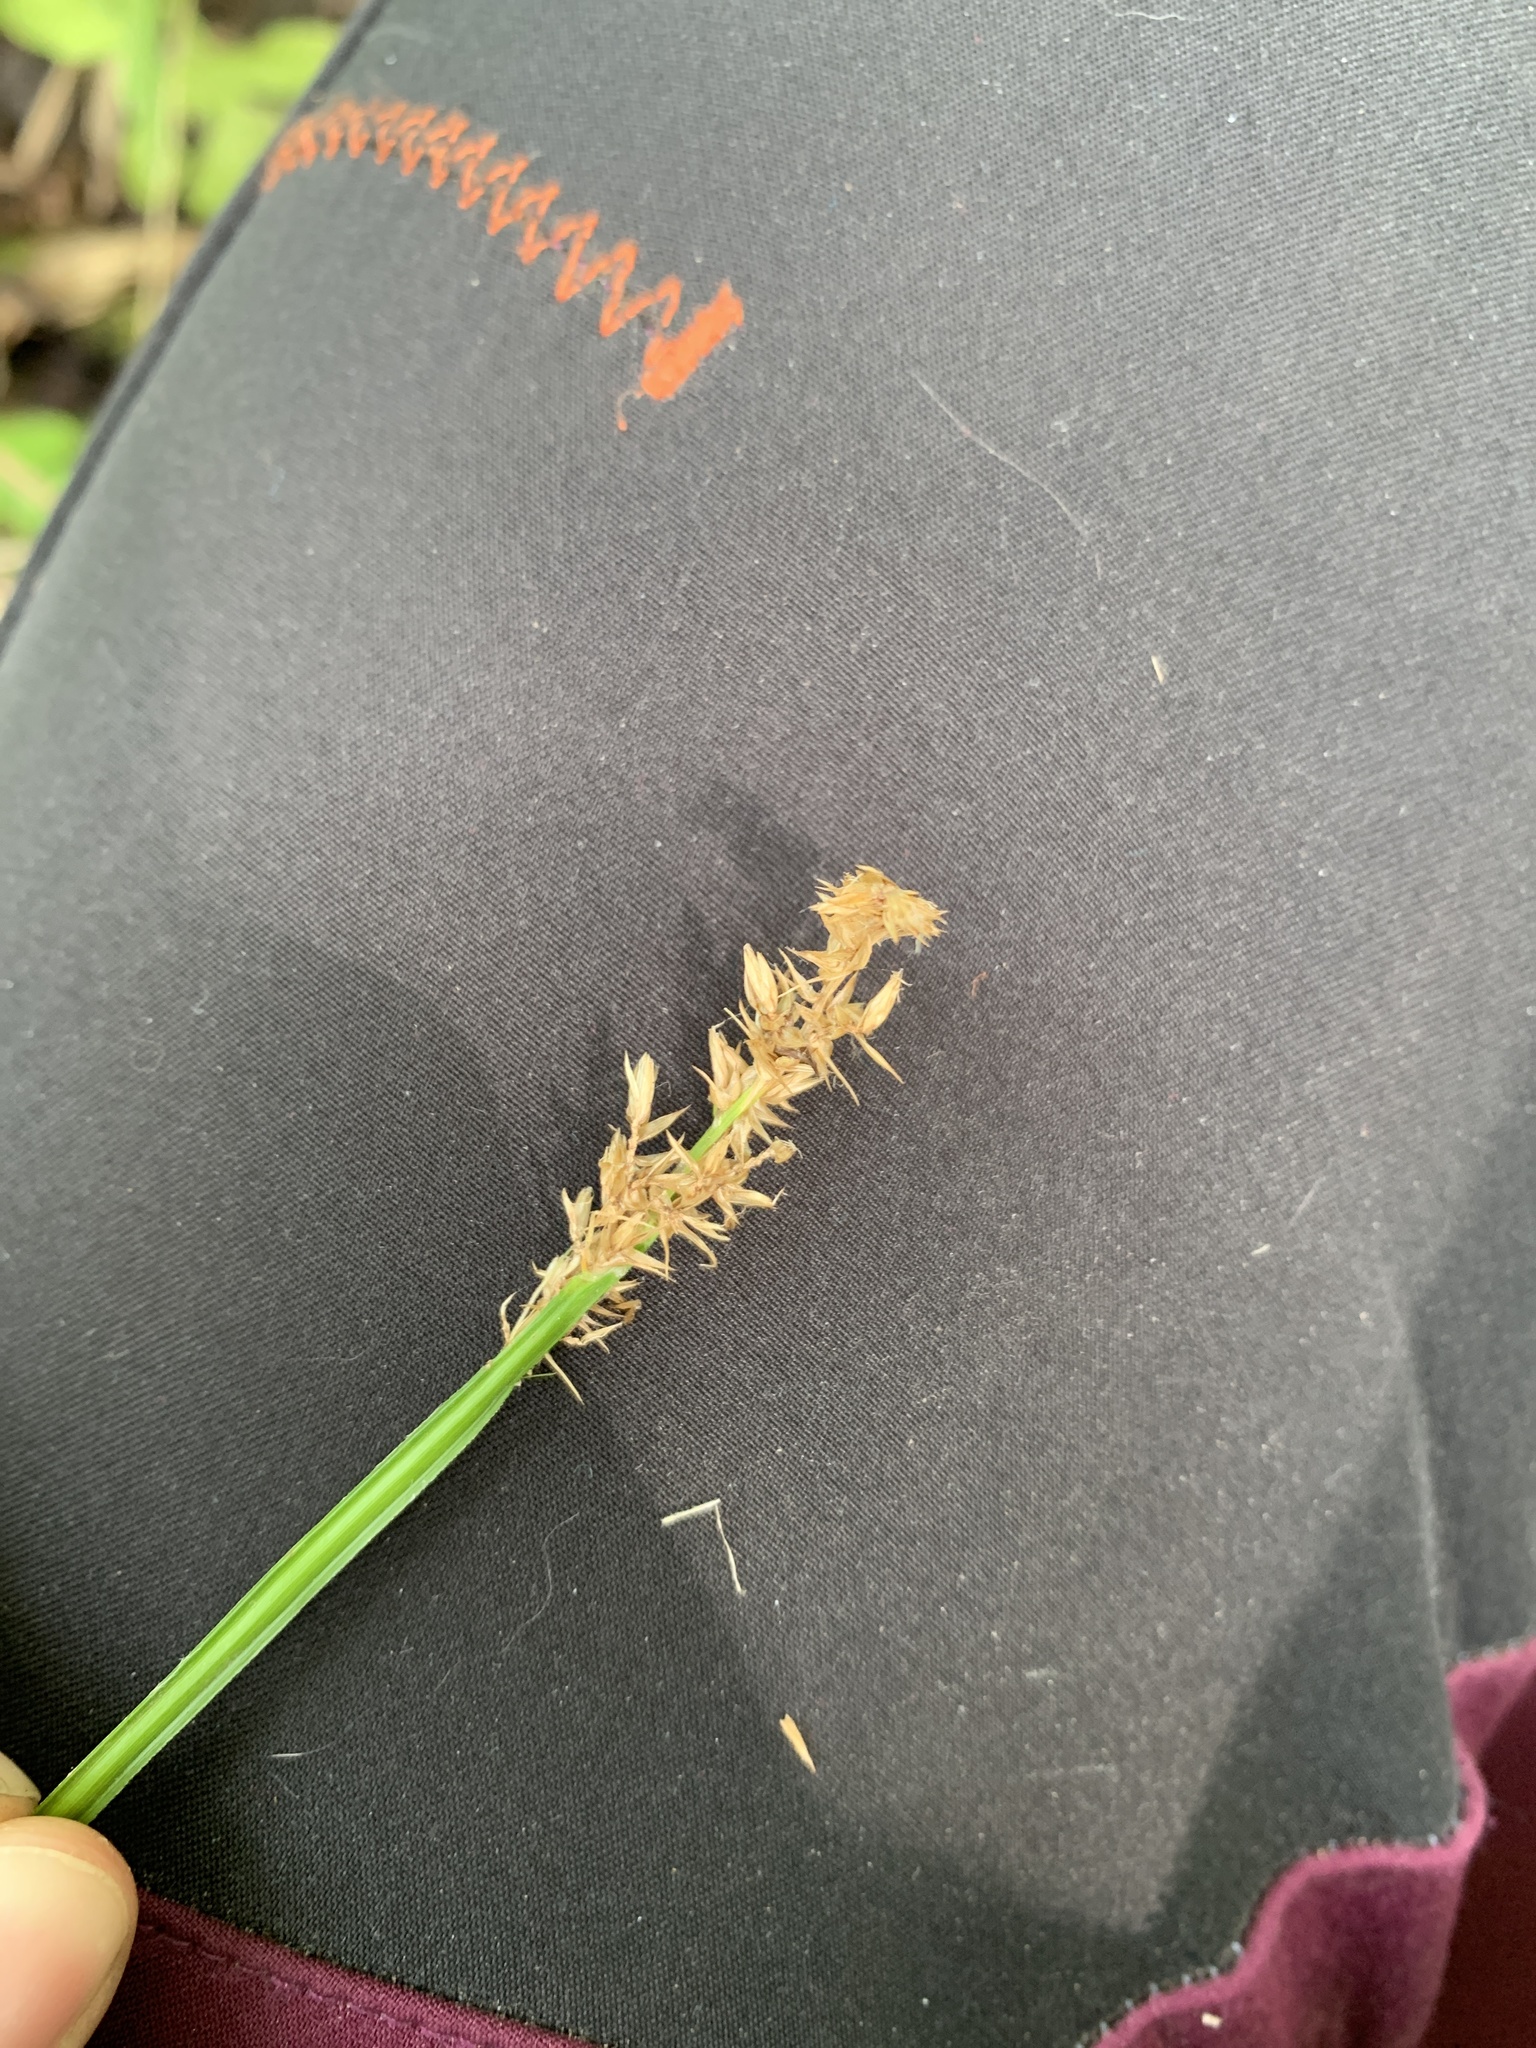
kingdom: Plantae
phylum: Tracheophyta
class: Liliopsida
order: Poales
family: Cyperaceae
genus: Carex
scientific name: Carex stipata
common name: Awl-fruited sedge
